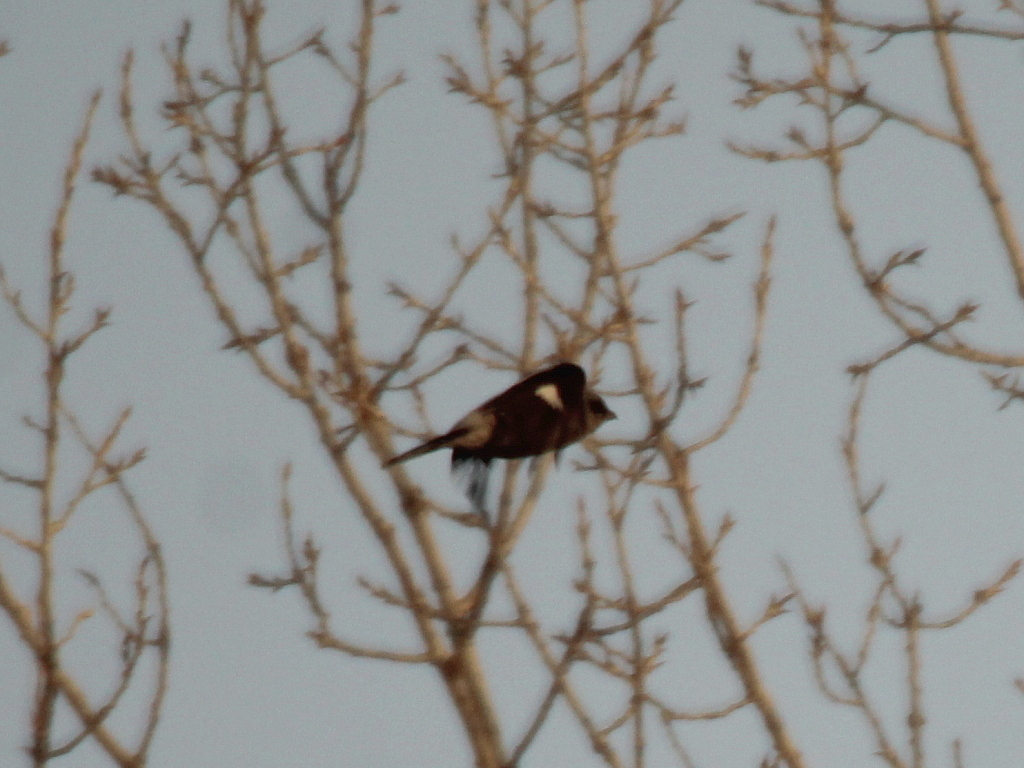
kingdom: Animalia
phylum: Chordata
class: Aves
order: Passeriformes
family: Laniidae
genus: Lanius
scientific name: Lanius borealis
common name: Northern shrike
